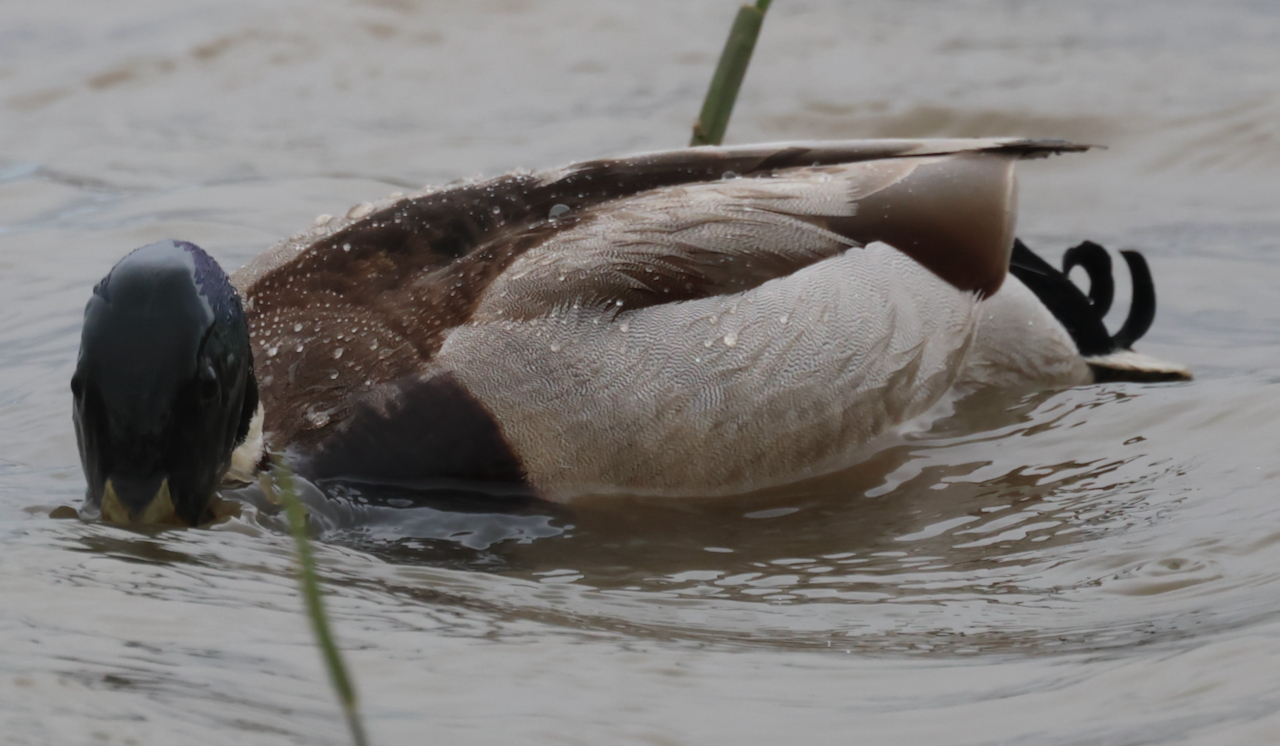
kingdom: Animalia
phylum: Chordata
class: Aves
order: Anseriformes
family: Anatidae
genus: Anas
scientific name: Anas platyrhynchos
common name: Mallard
